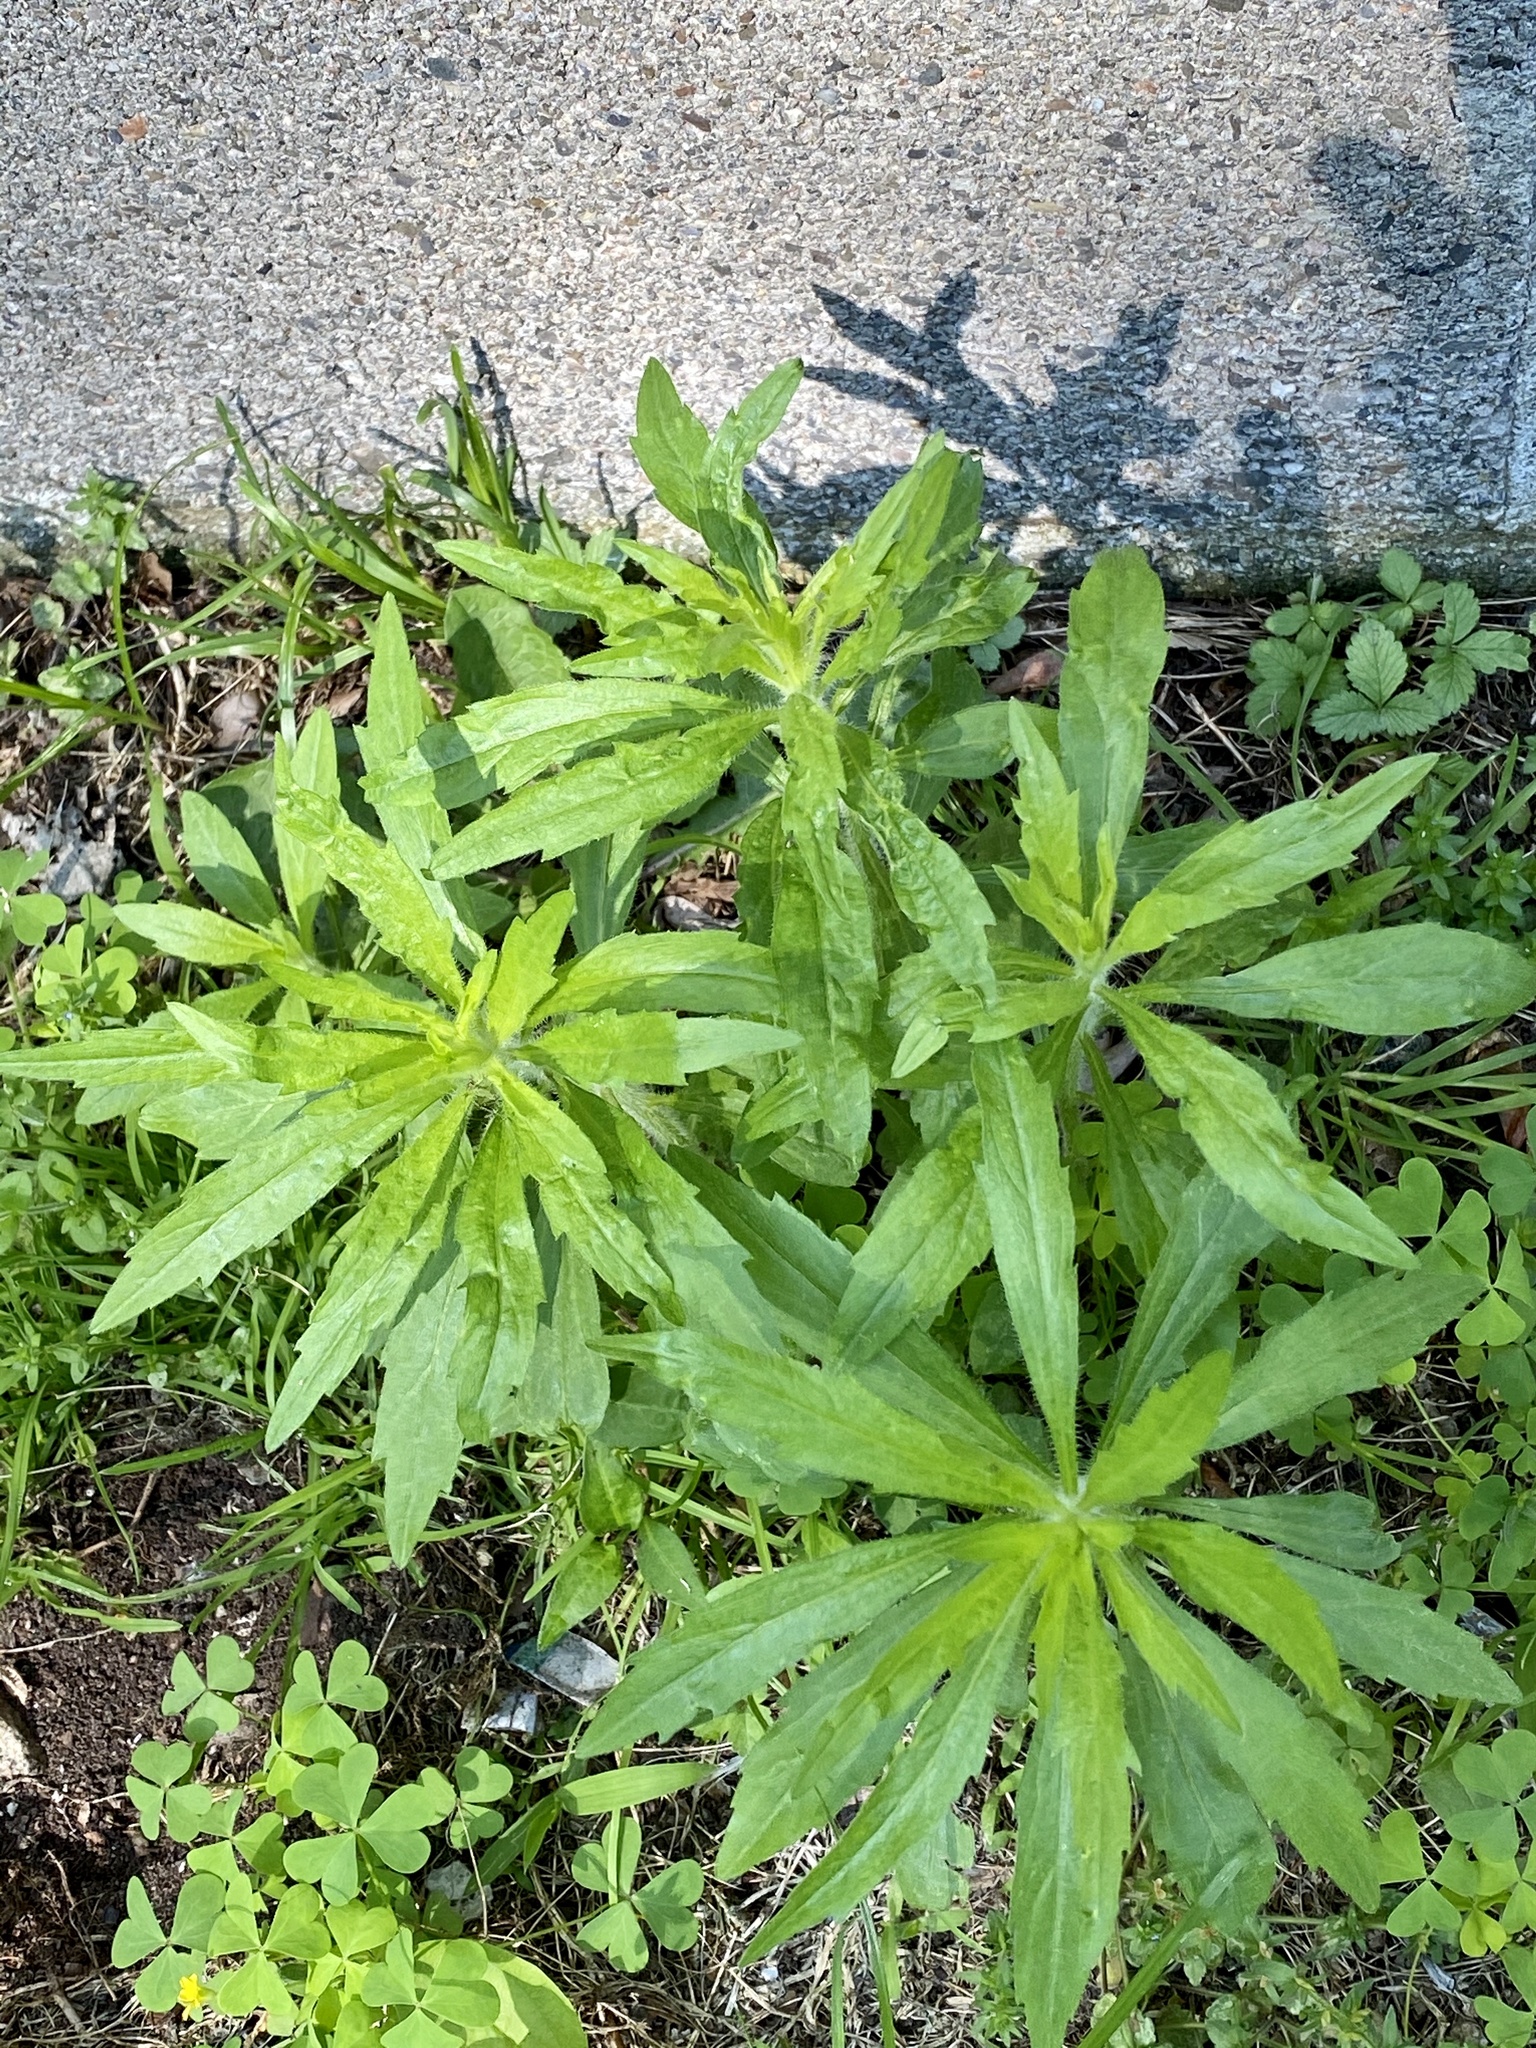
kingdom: Plantae
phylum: Tracheophyta
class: Magnoliopsida
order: Asterales
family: Asteraceae
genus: Erigeron
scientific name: Erigeron canadensis
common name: Canadian fleabane
